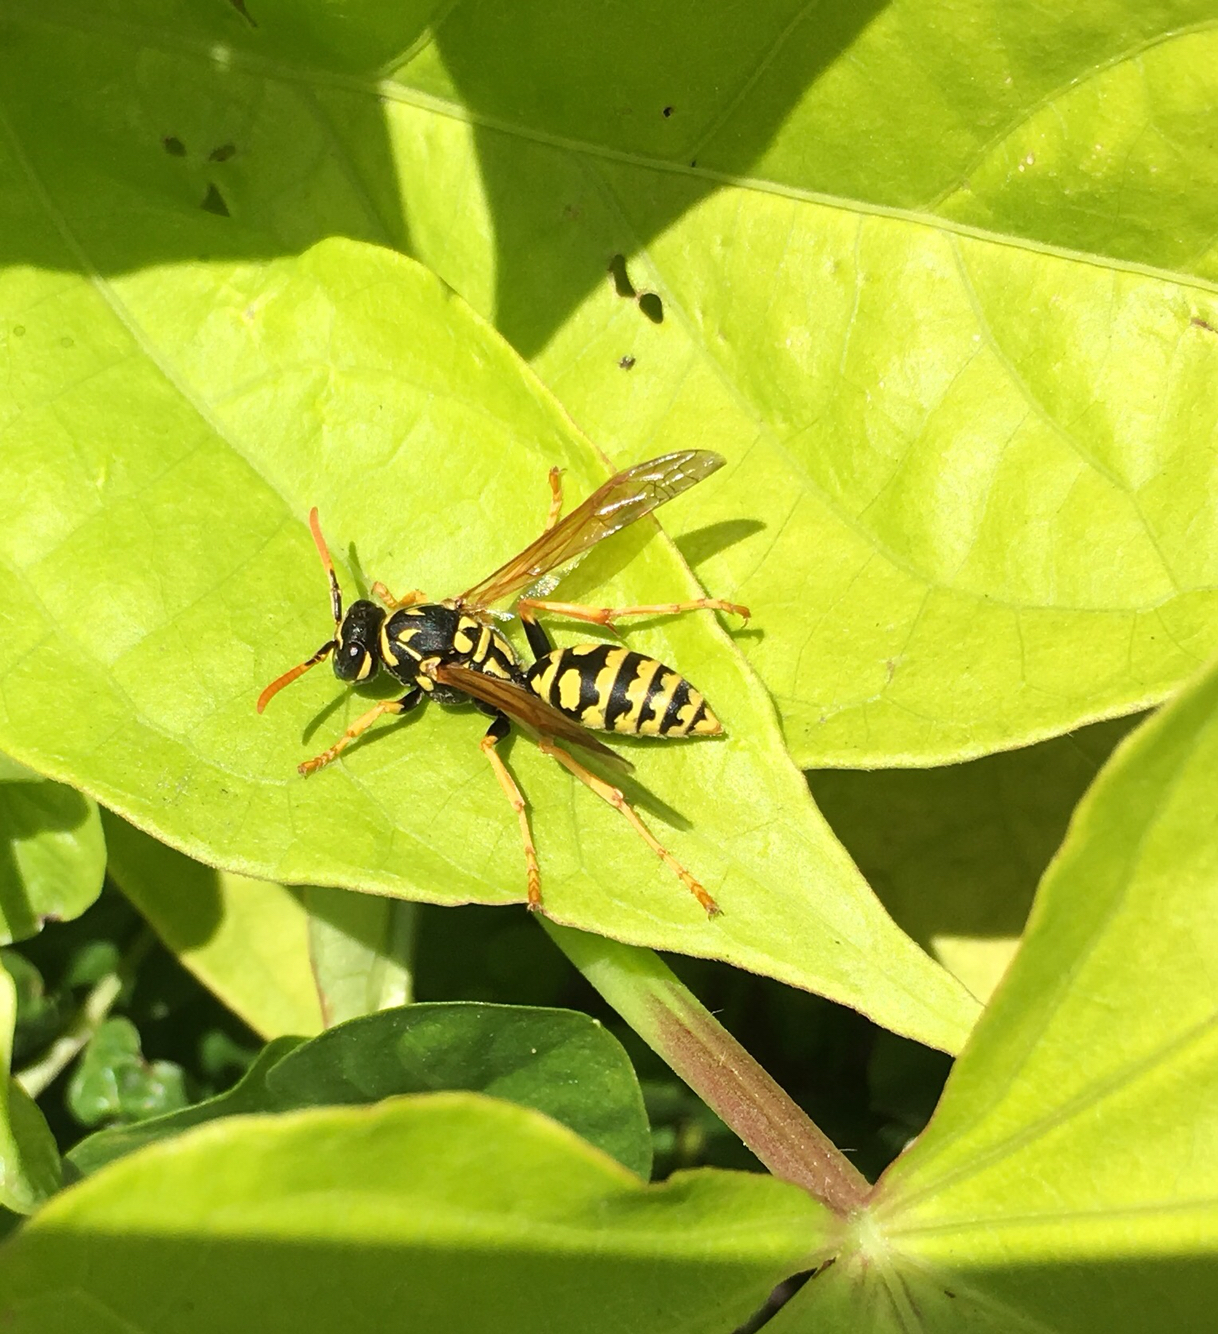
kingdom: Animalia
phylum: Arthropoda
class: Insecta
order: Hymenoptera
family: Eumenidae
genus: Polistes
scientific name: Polistes dominula
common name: Paper wasp
